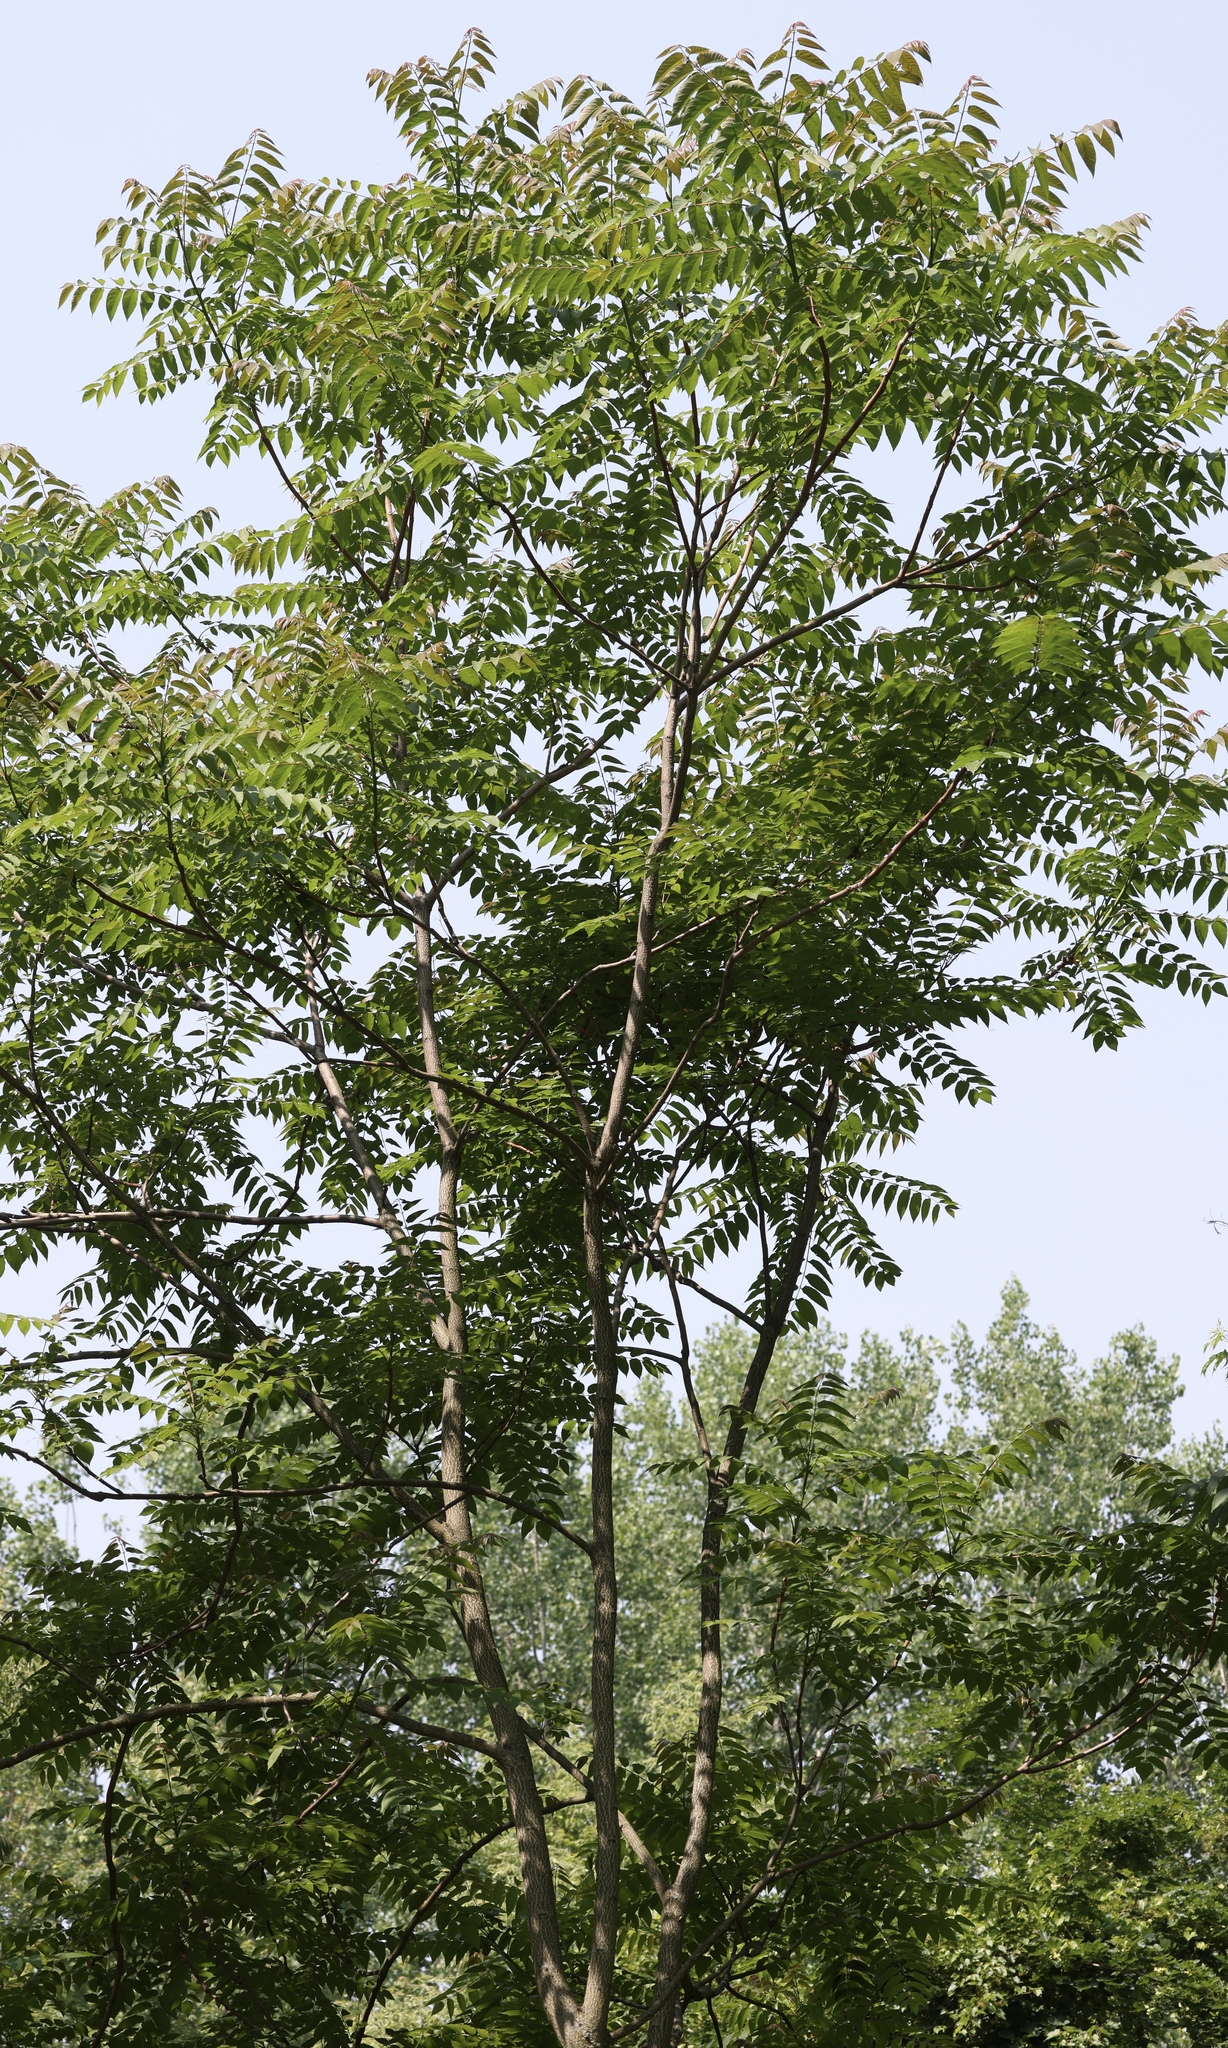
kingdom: Plantae
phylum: Tracheophyta
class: Magnoliopsida
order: Sapindales
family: Simaroubaceae
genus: Ailanthus
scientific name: Ailanthus altissima
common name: Tree-of-heaven
